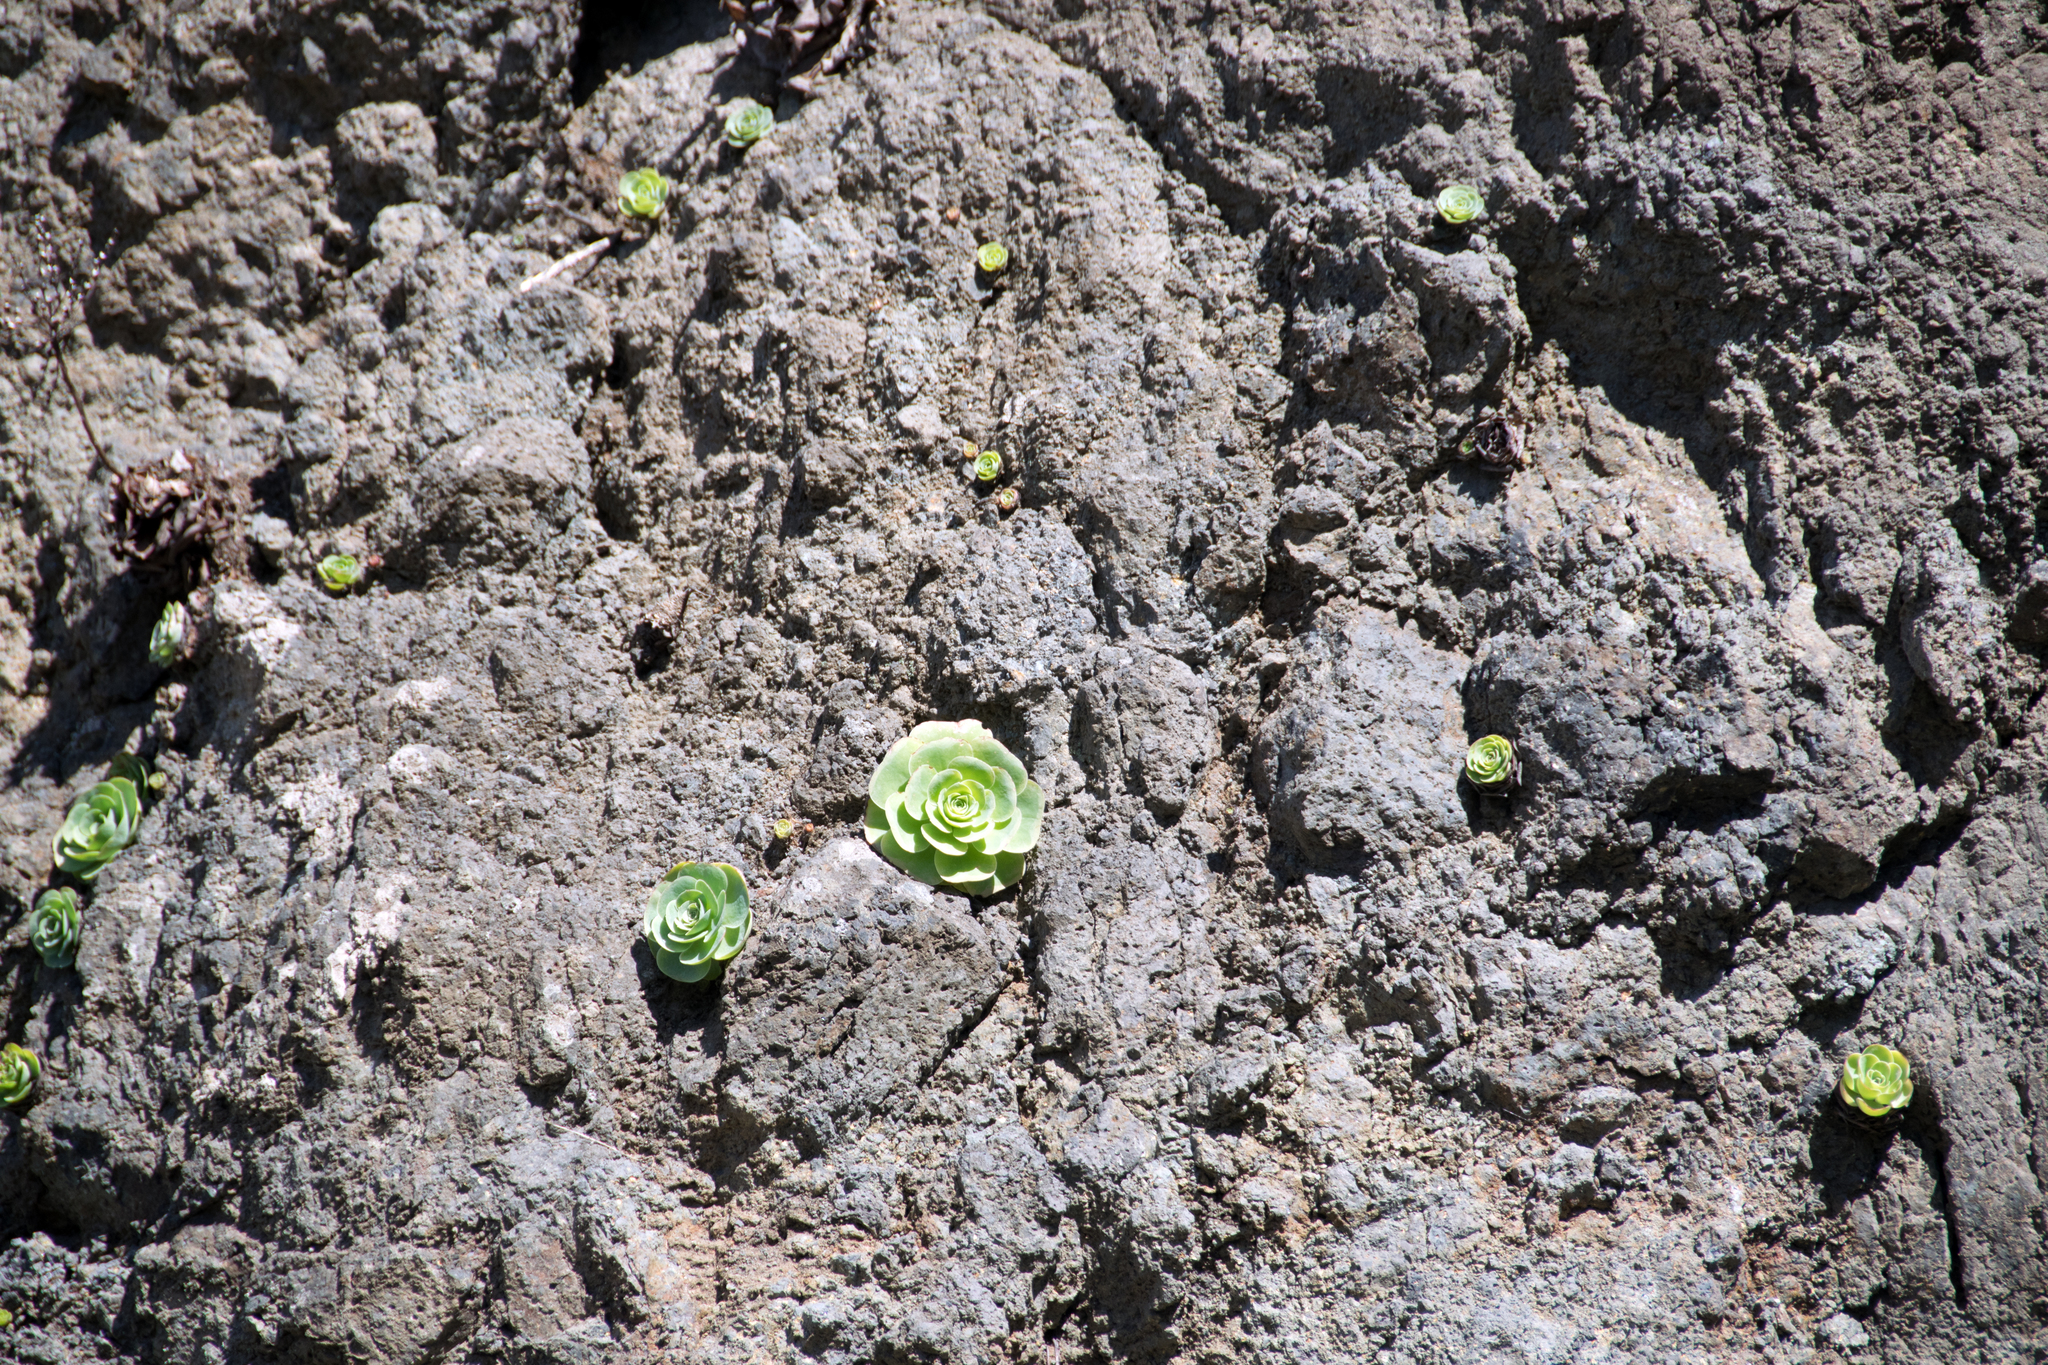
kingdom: Plantae
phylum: Tracheophyta
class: Magnoliopsida
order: Saxifragales
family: Crassulaceae
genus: Aeonium
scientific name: Aeonium diplocyclum
